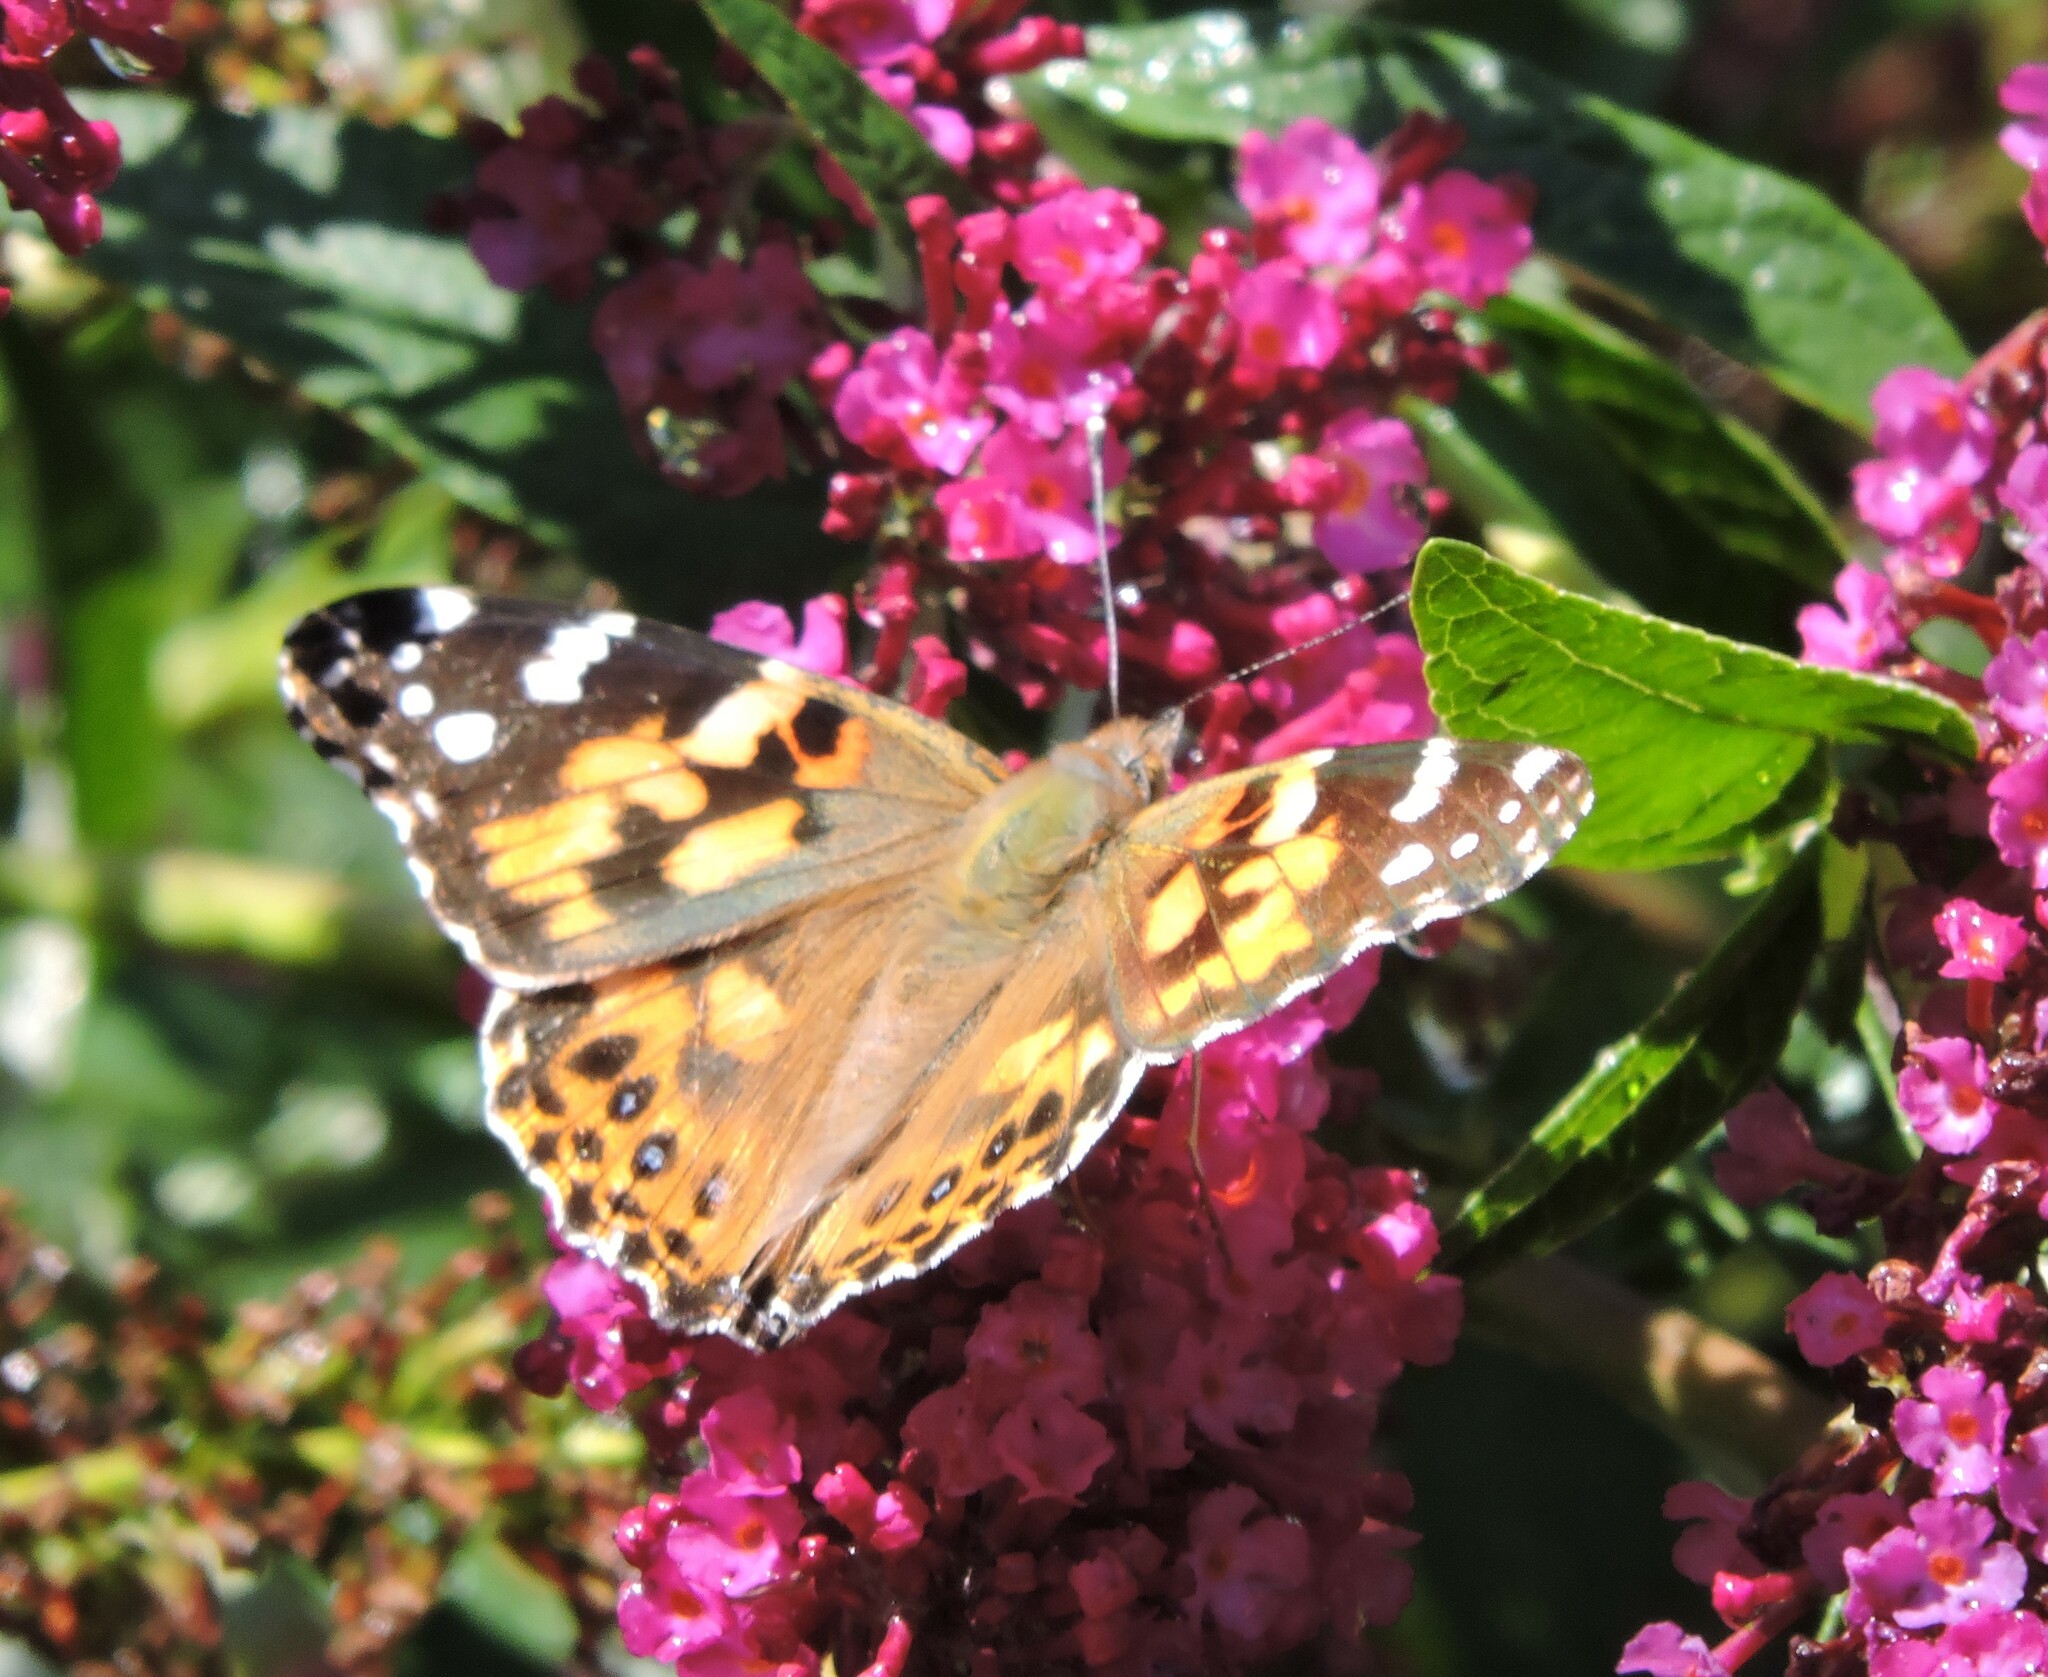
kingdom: Animalia
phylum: Arthropoda
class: Insecta
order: Lepidoptera
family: Nymphalidae
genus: Vanessa
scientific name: Vanessa cardui
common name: Painted lady
